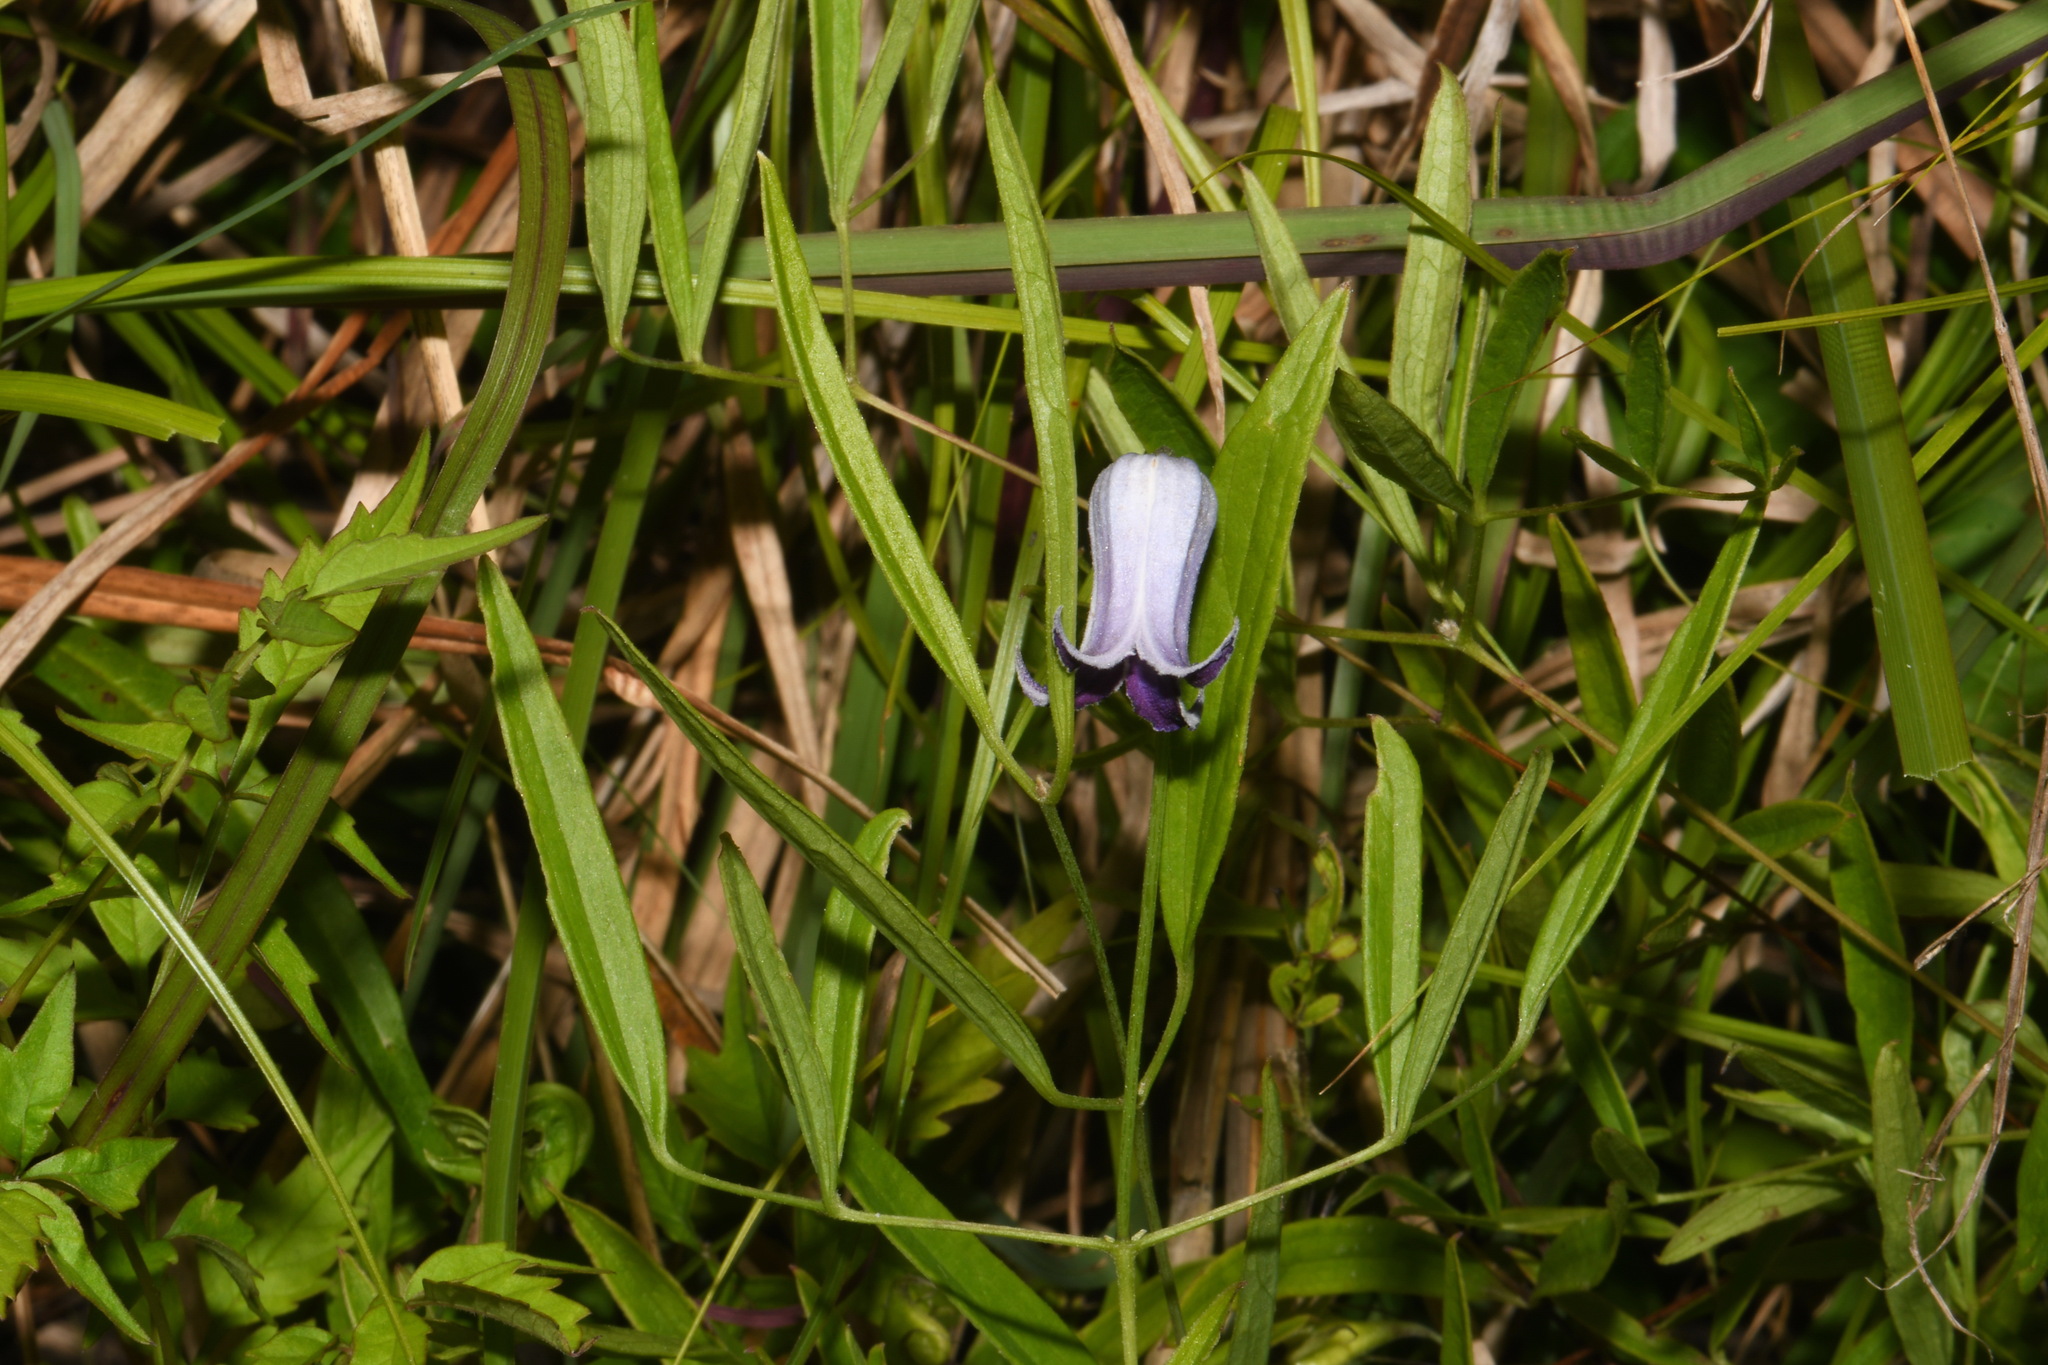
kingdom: Plantae
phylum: Tracheophyta
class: Magnoliopsida
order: Ranunculales
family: Ranunculaceae
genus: Clematis
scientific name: Clematis socialis
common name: Alabama leather-flower
